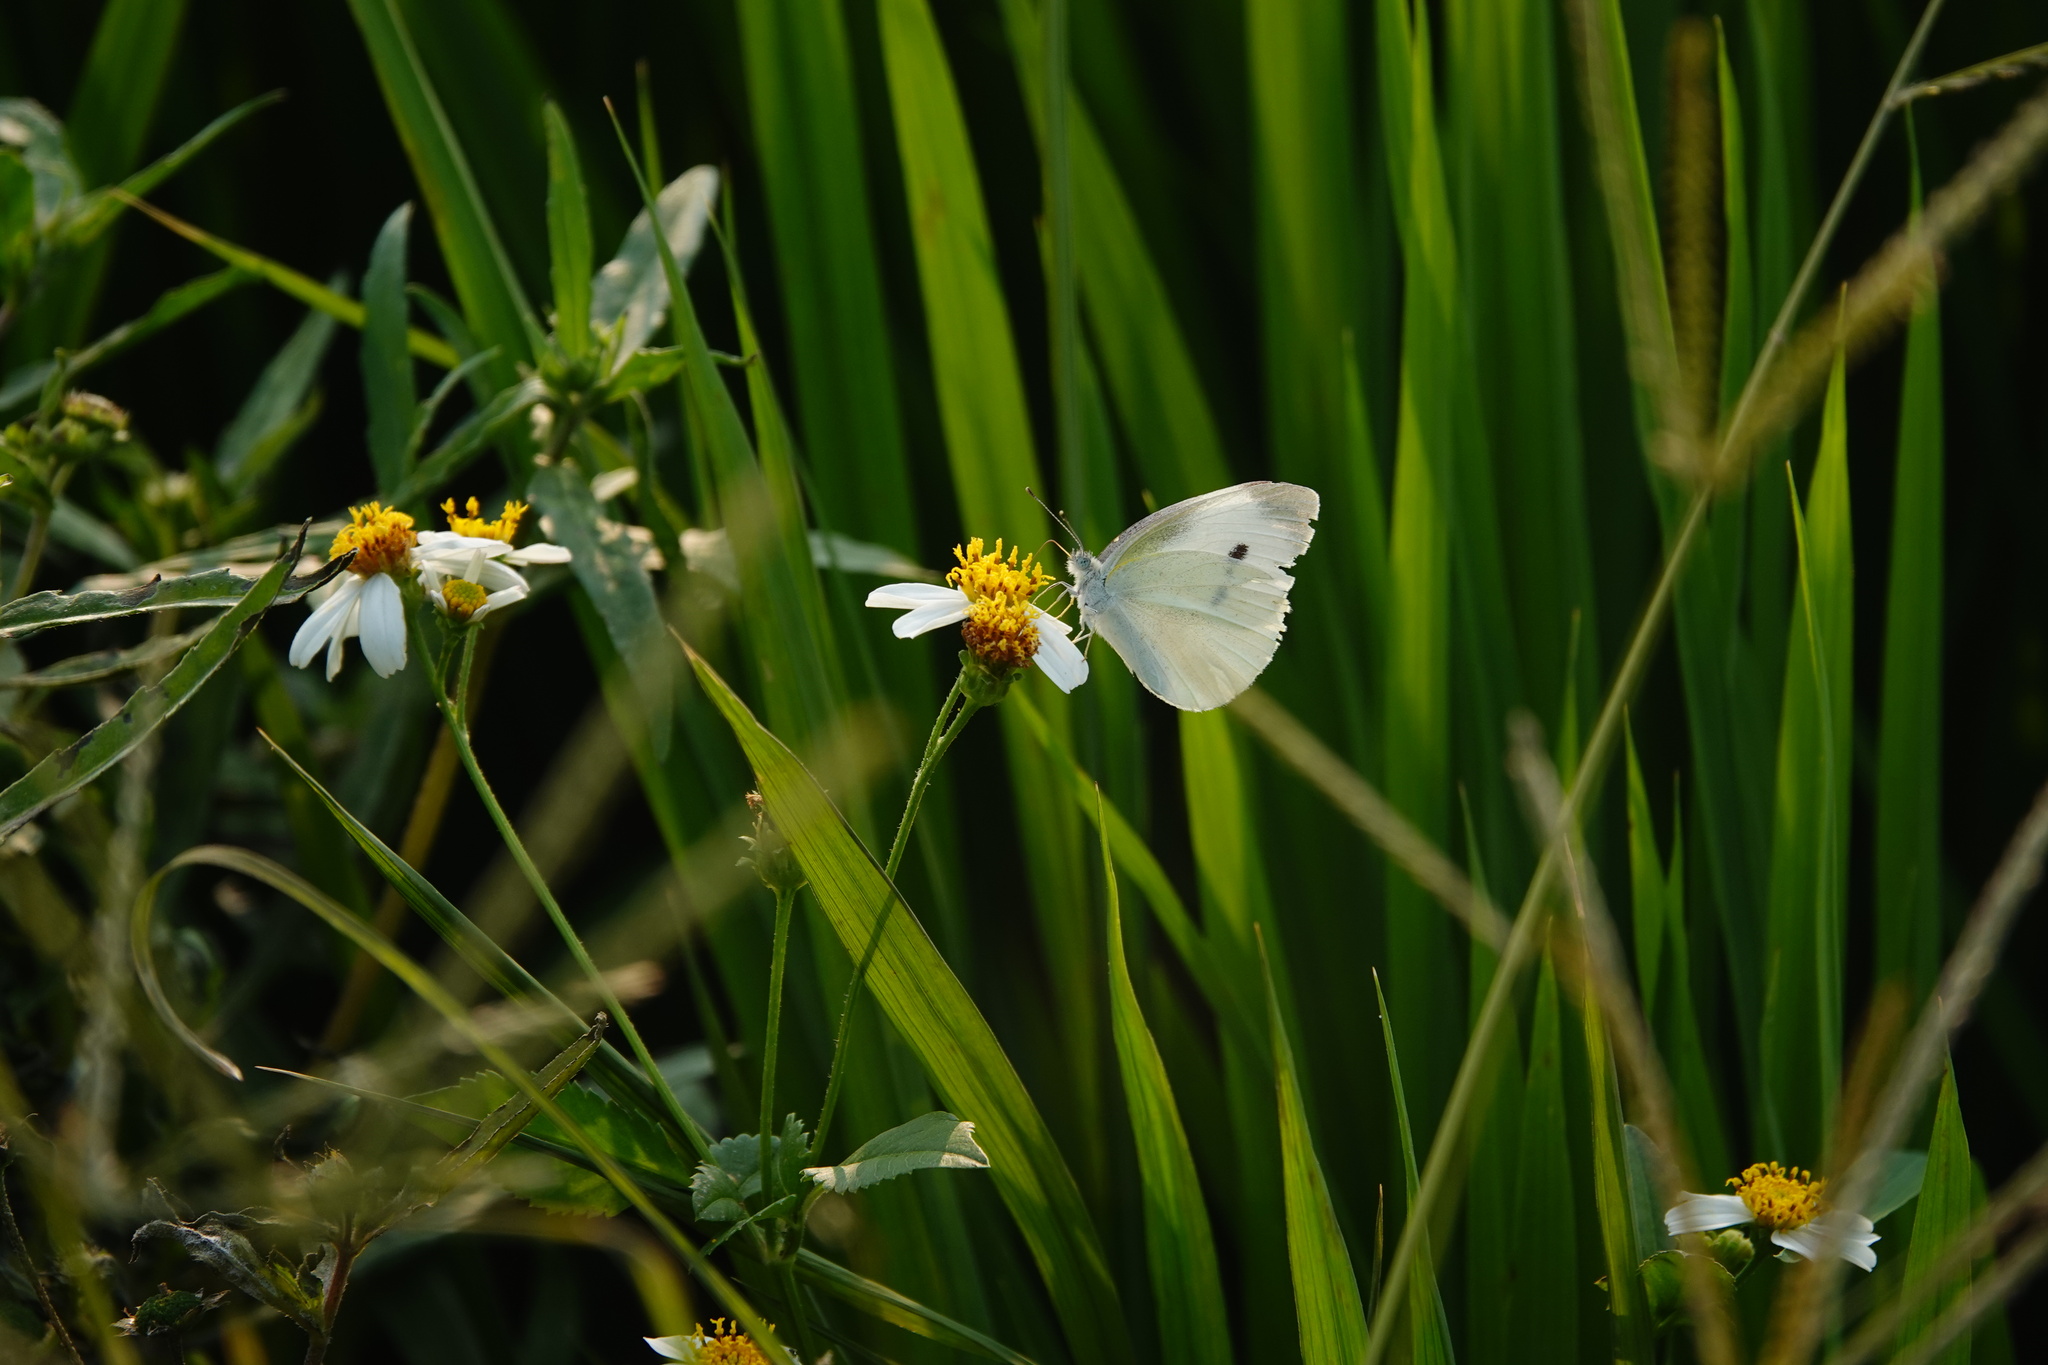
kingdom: Animalia
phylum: Arthropoda
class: Insecta
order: Lepidoptera
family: Pieridae
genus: Pieris
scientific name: Pieris rapae
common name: Small white
